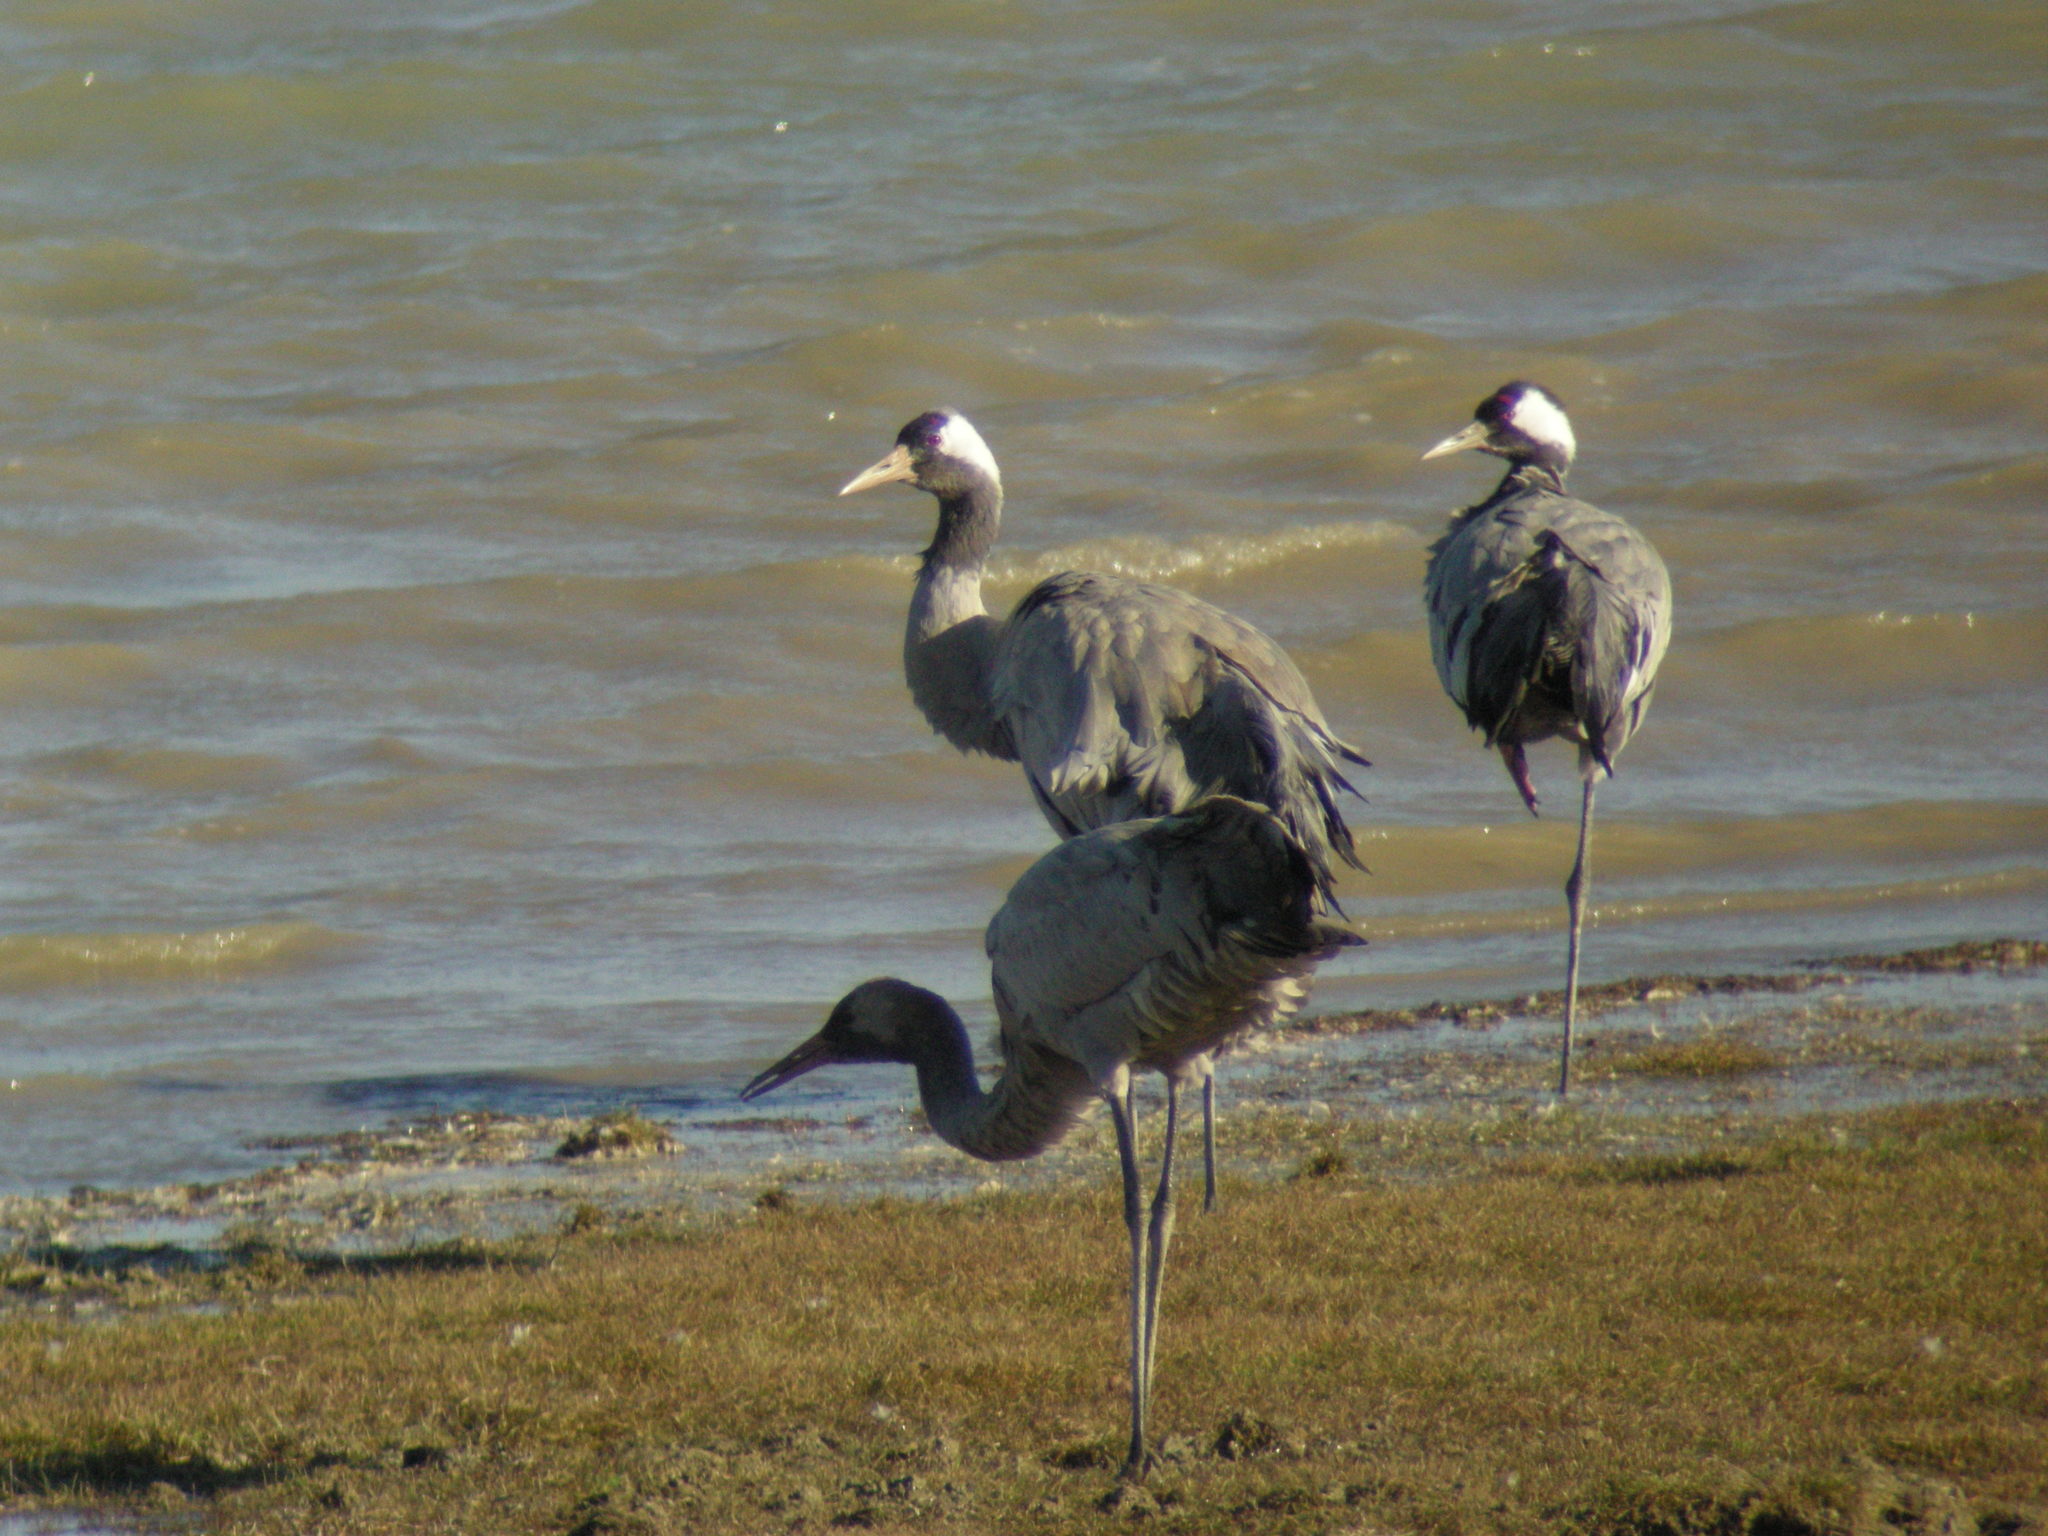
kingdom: Animalia
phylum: Chordata
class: Aves
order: Gruiformes
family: Gruidae
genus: Grus
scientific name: Grus grus
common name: Common crane
